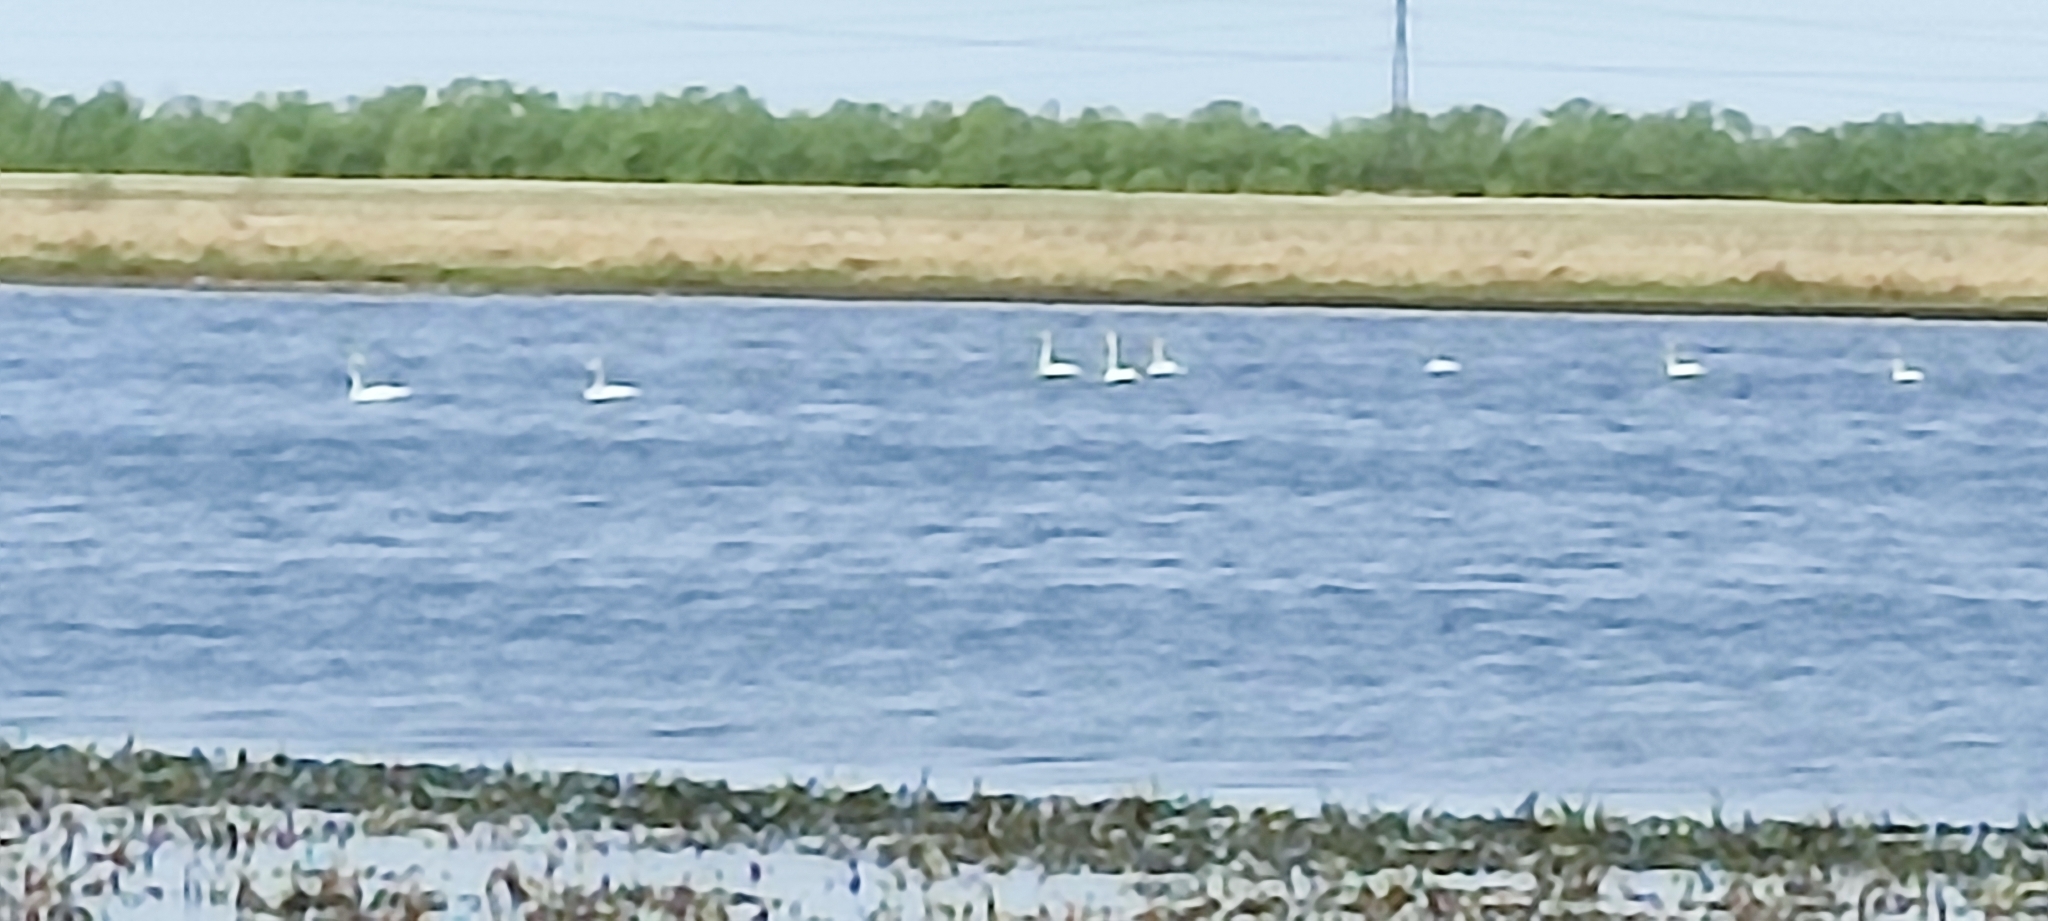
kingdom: Animalia
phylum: Chordata
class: Aves
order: Anseriformes
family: Anatidae
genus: Cygnus
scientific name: Cygnus
